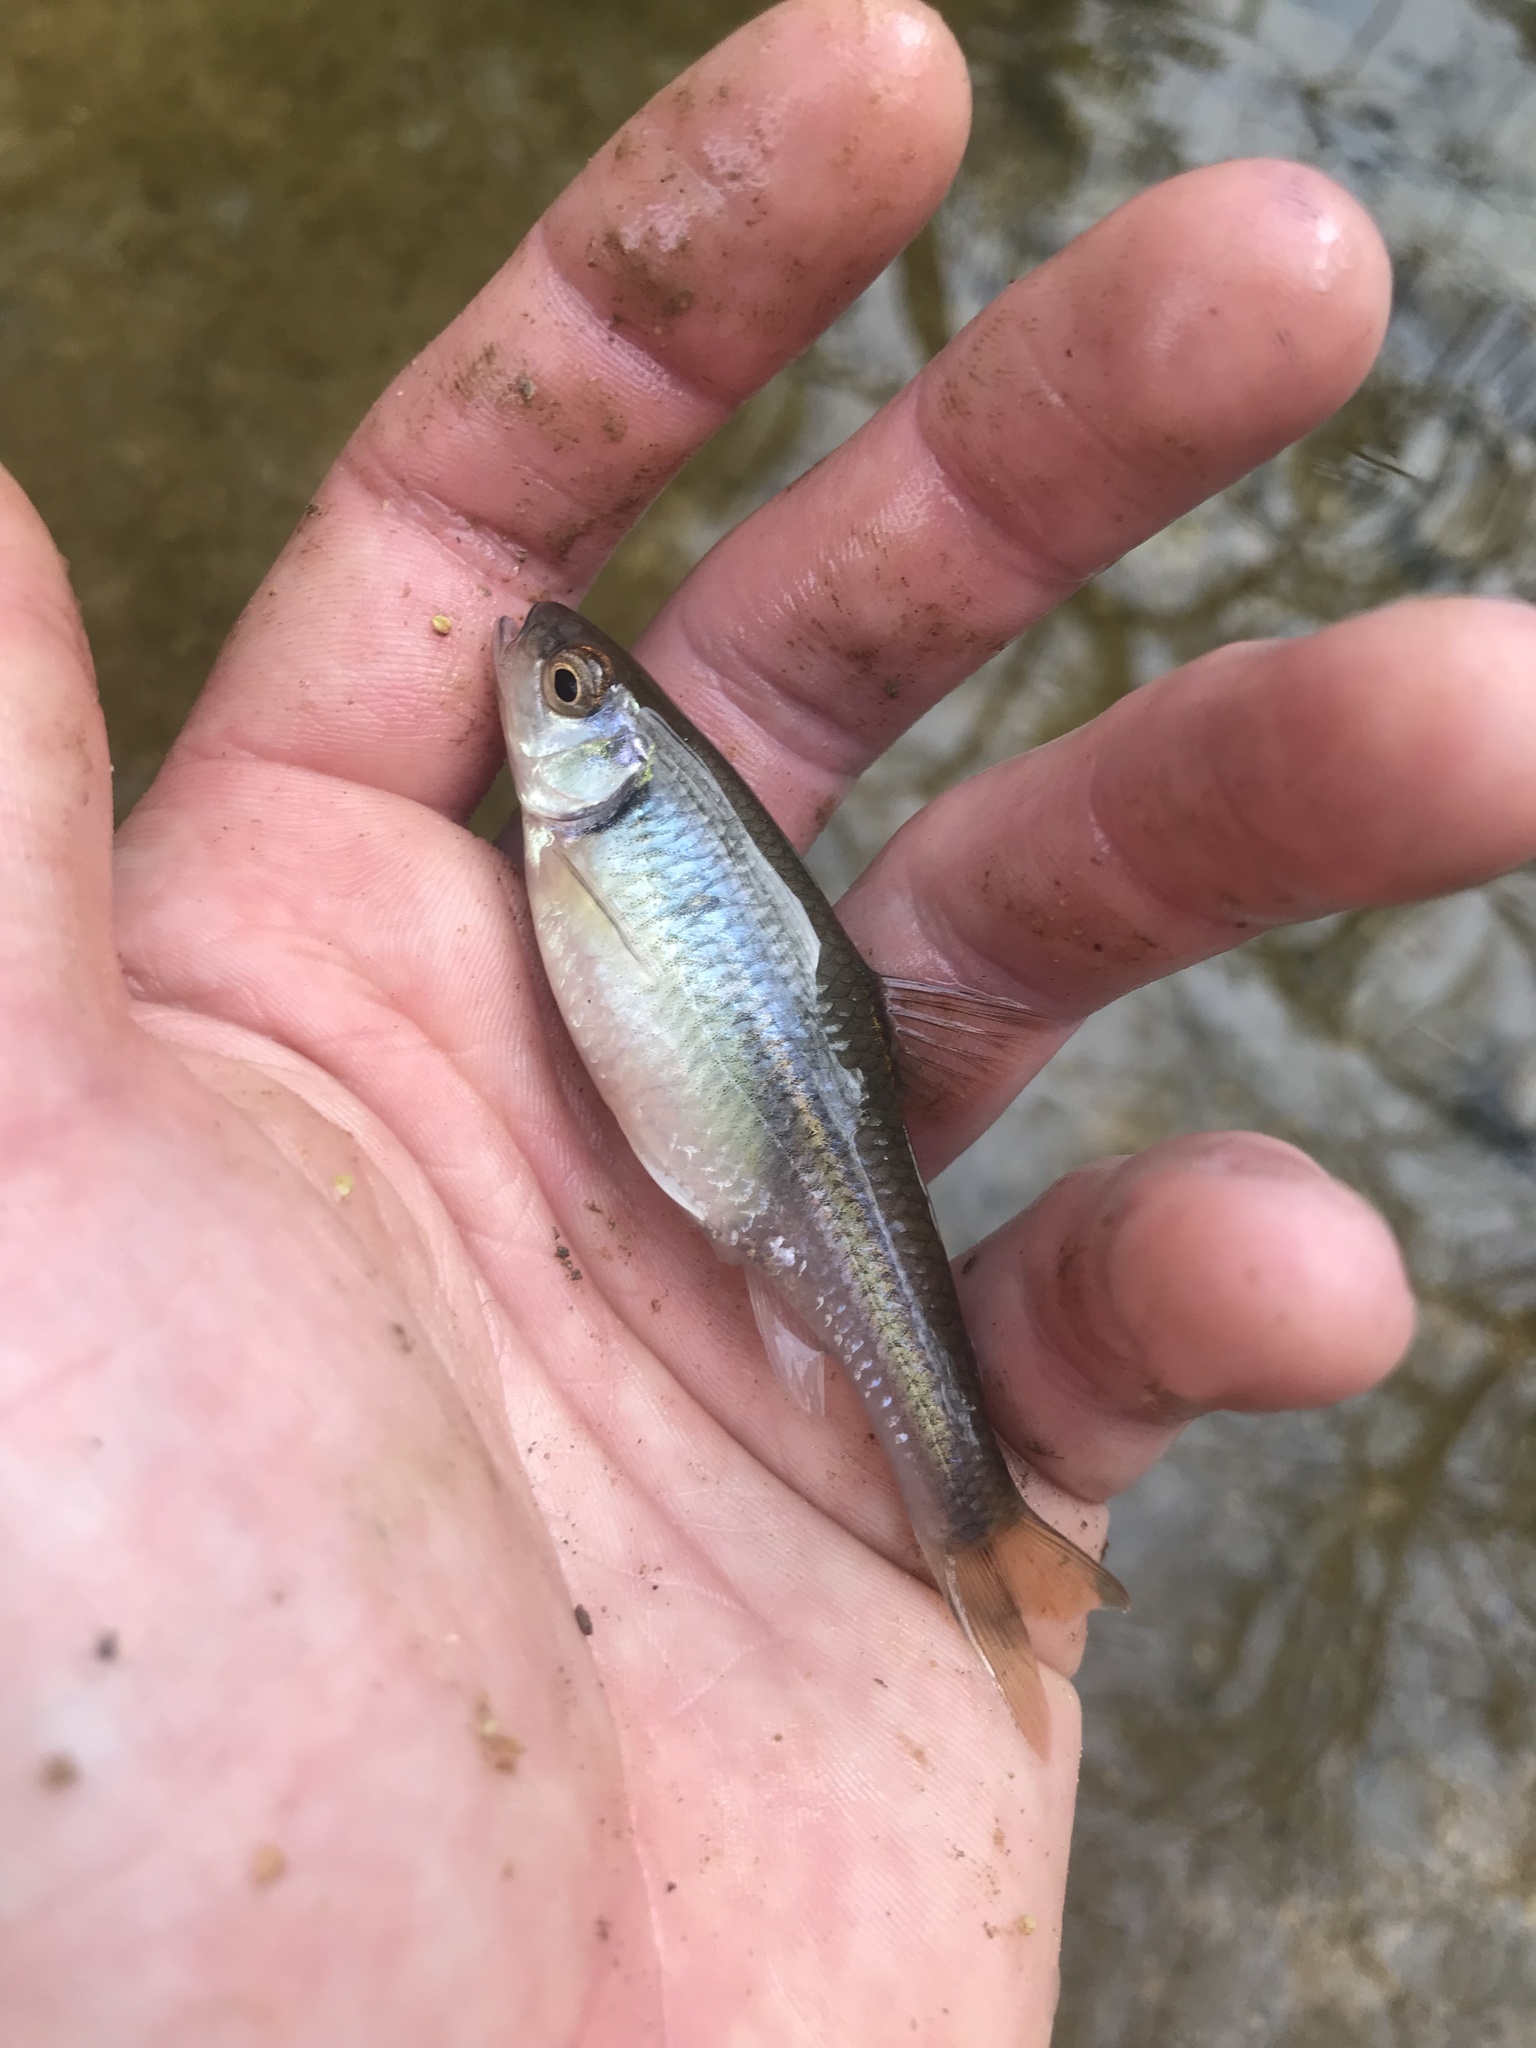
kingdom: Animalia
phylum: Chordata
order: Cypriniformes
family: Cyprinidae
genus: Luxilus
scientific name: Luxilus albeolus
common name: White shiner
